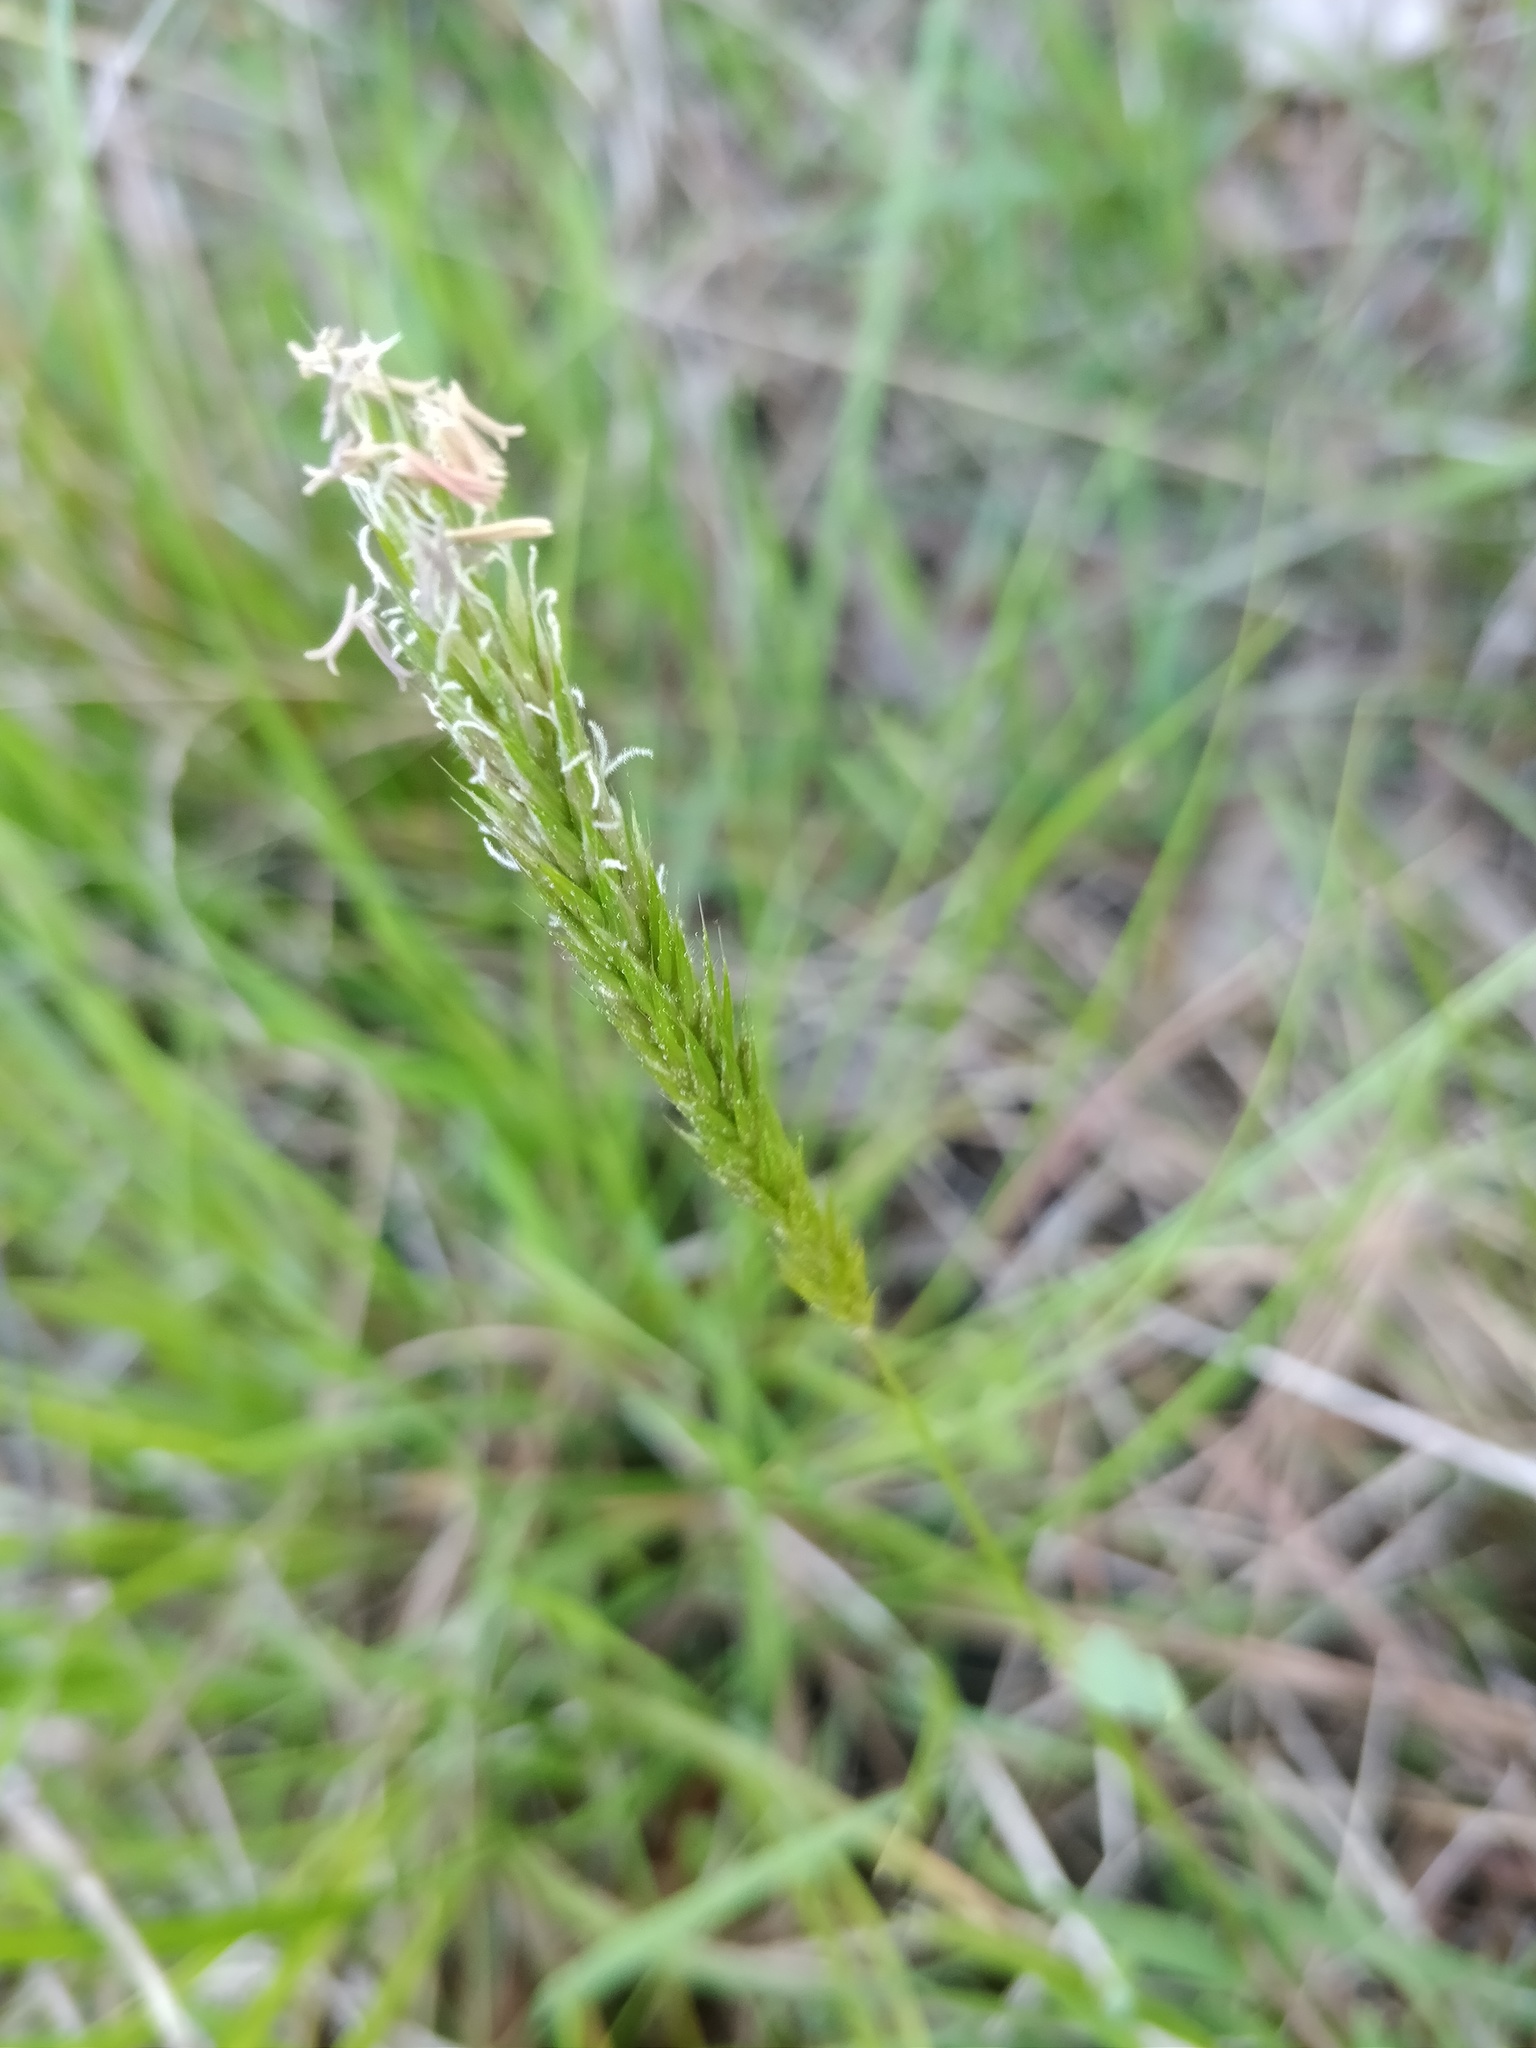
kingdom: Plantae
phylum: Tracheophyta
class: Liliopsida
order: Poales
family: Poaceae
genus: Anthoxanthum
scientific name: Anthoxanthum odoratum
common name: Sweet vernalgrass
